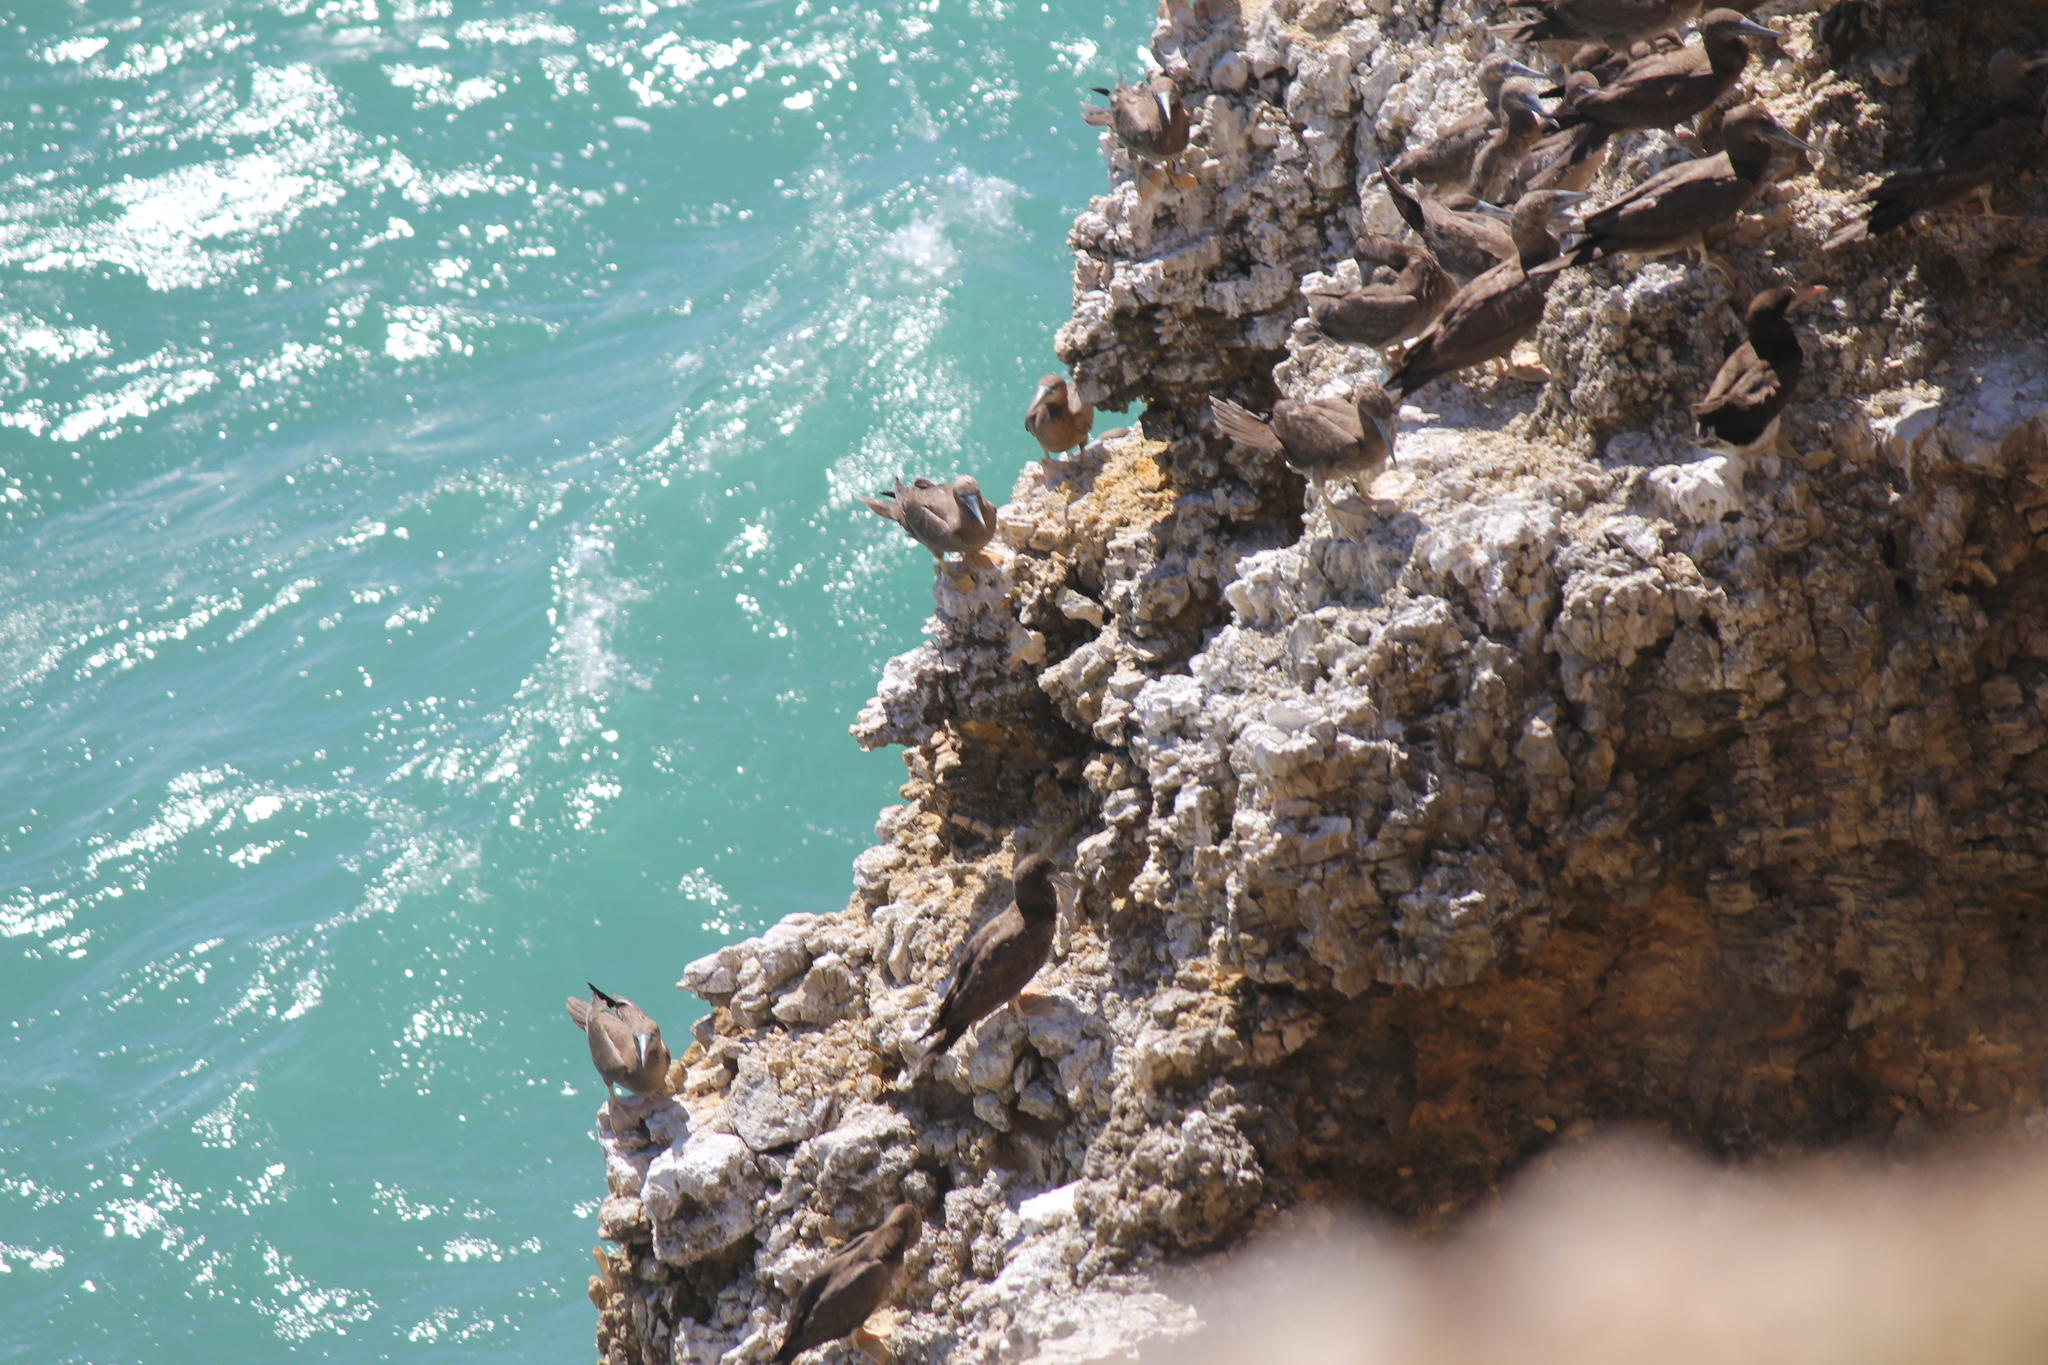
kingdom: Animalia
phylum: Chordata
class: Aves
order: Suliformes
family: Sulidae
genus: Sula
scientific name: Sula leucogaster
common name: Brown booby
